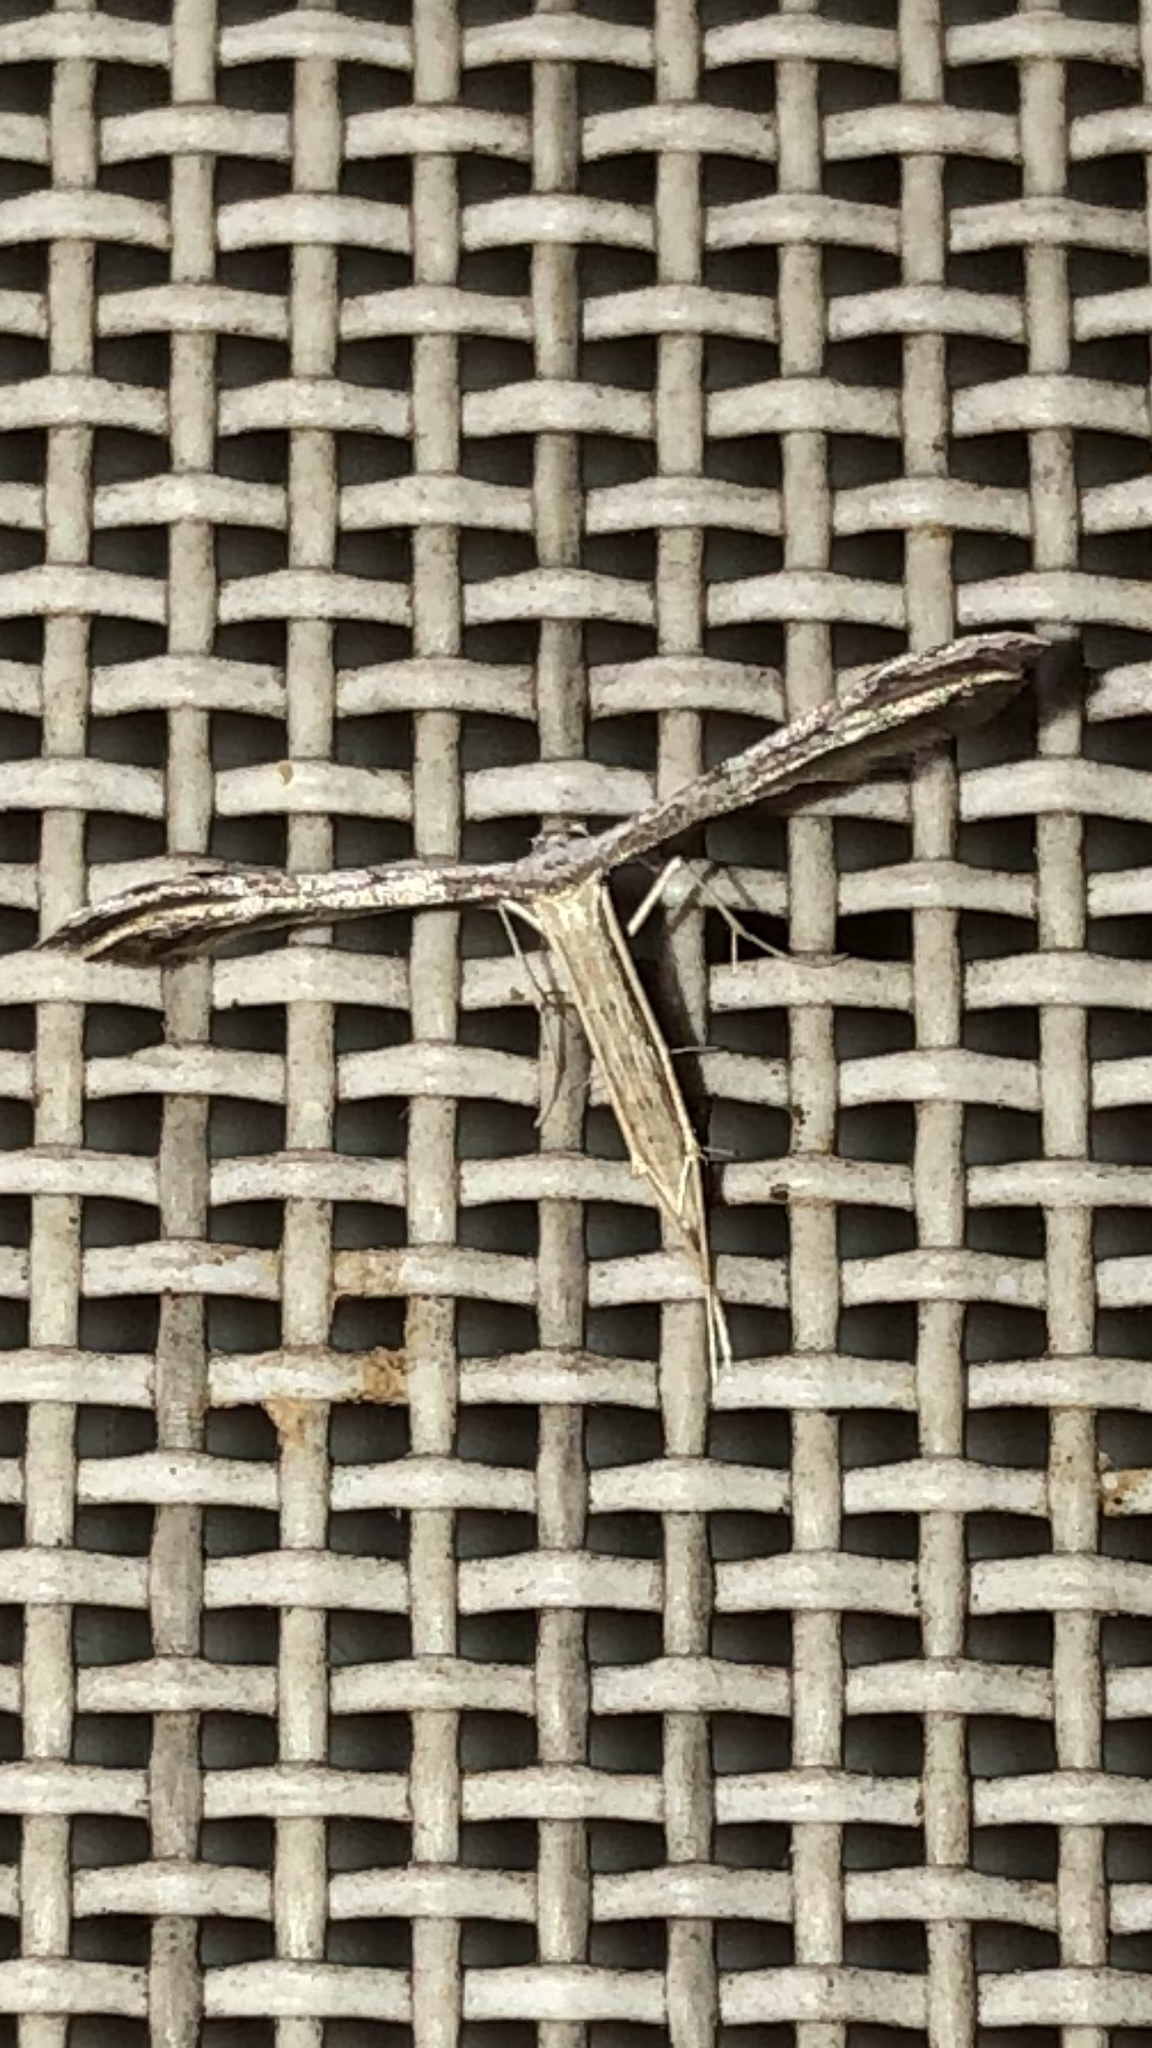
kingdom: Animalia
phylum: Arthropoda
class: Insecta
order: Lepidoptera
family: Pterophoridae
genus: Pselnophorus
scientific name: Pselnophorus belfragei
